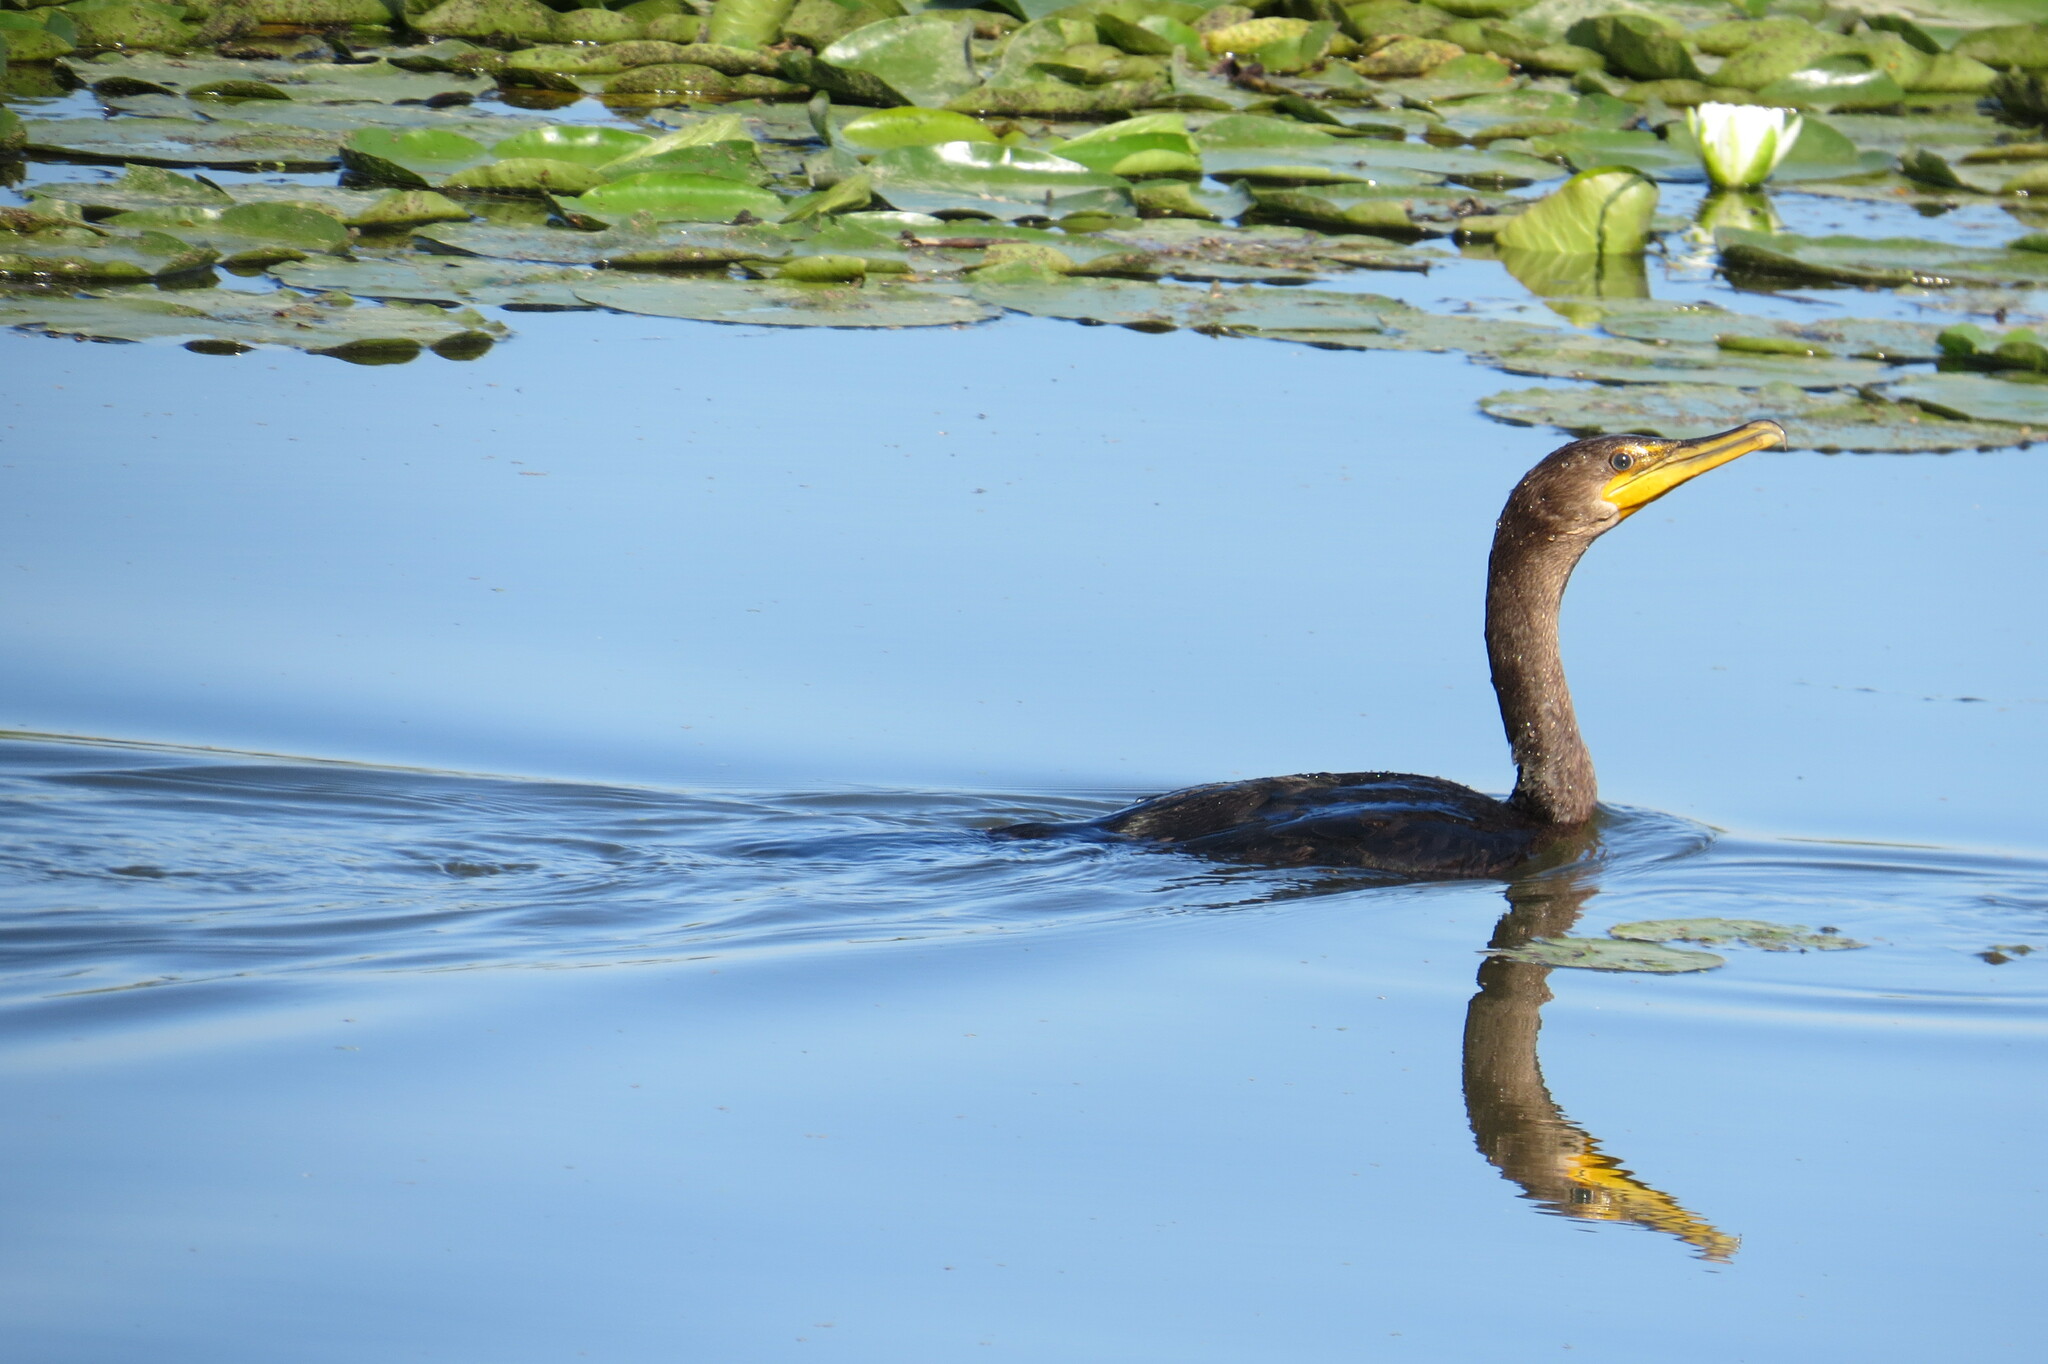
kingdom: Animalia
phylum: Chordata
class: Aves
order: Suliformes
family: Phalacrocoracidae
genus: Phalacrocorax
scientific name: Phalacrocorax auritus
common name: Double-crested cormorant
